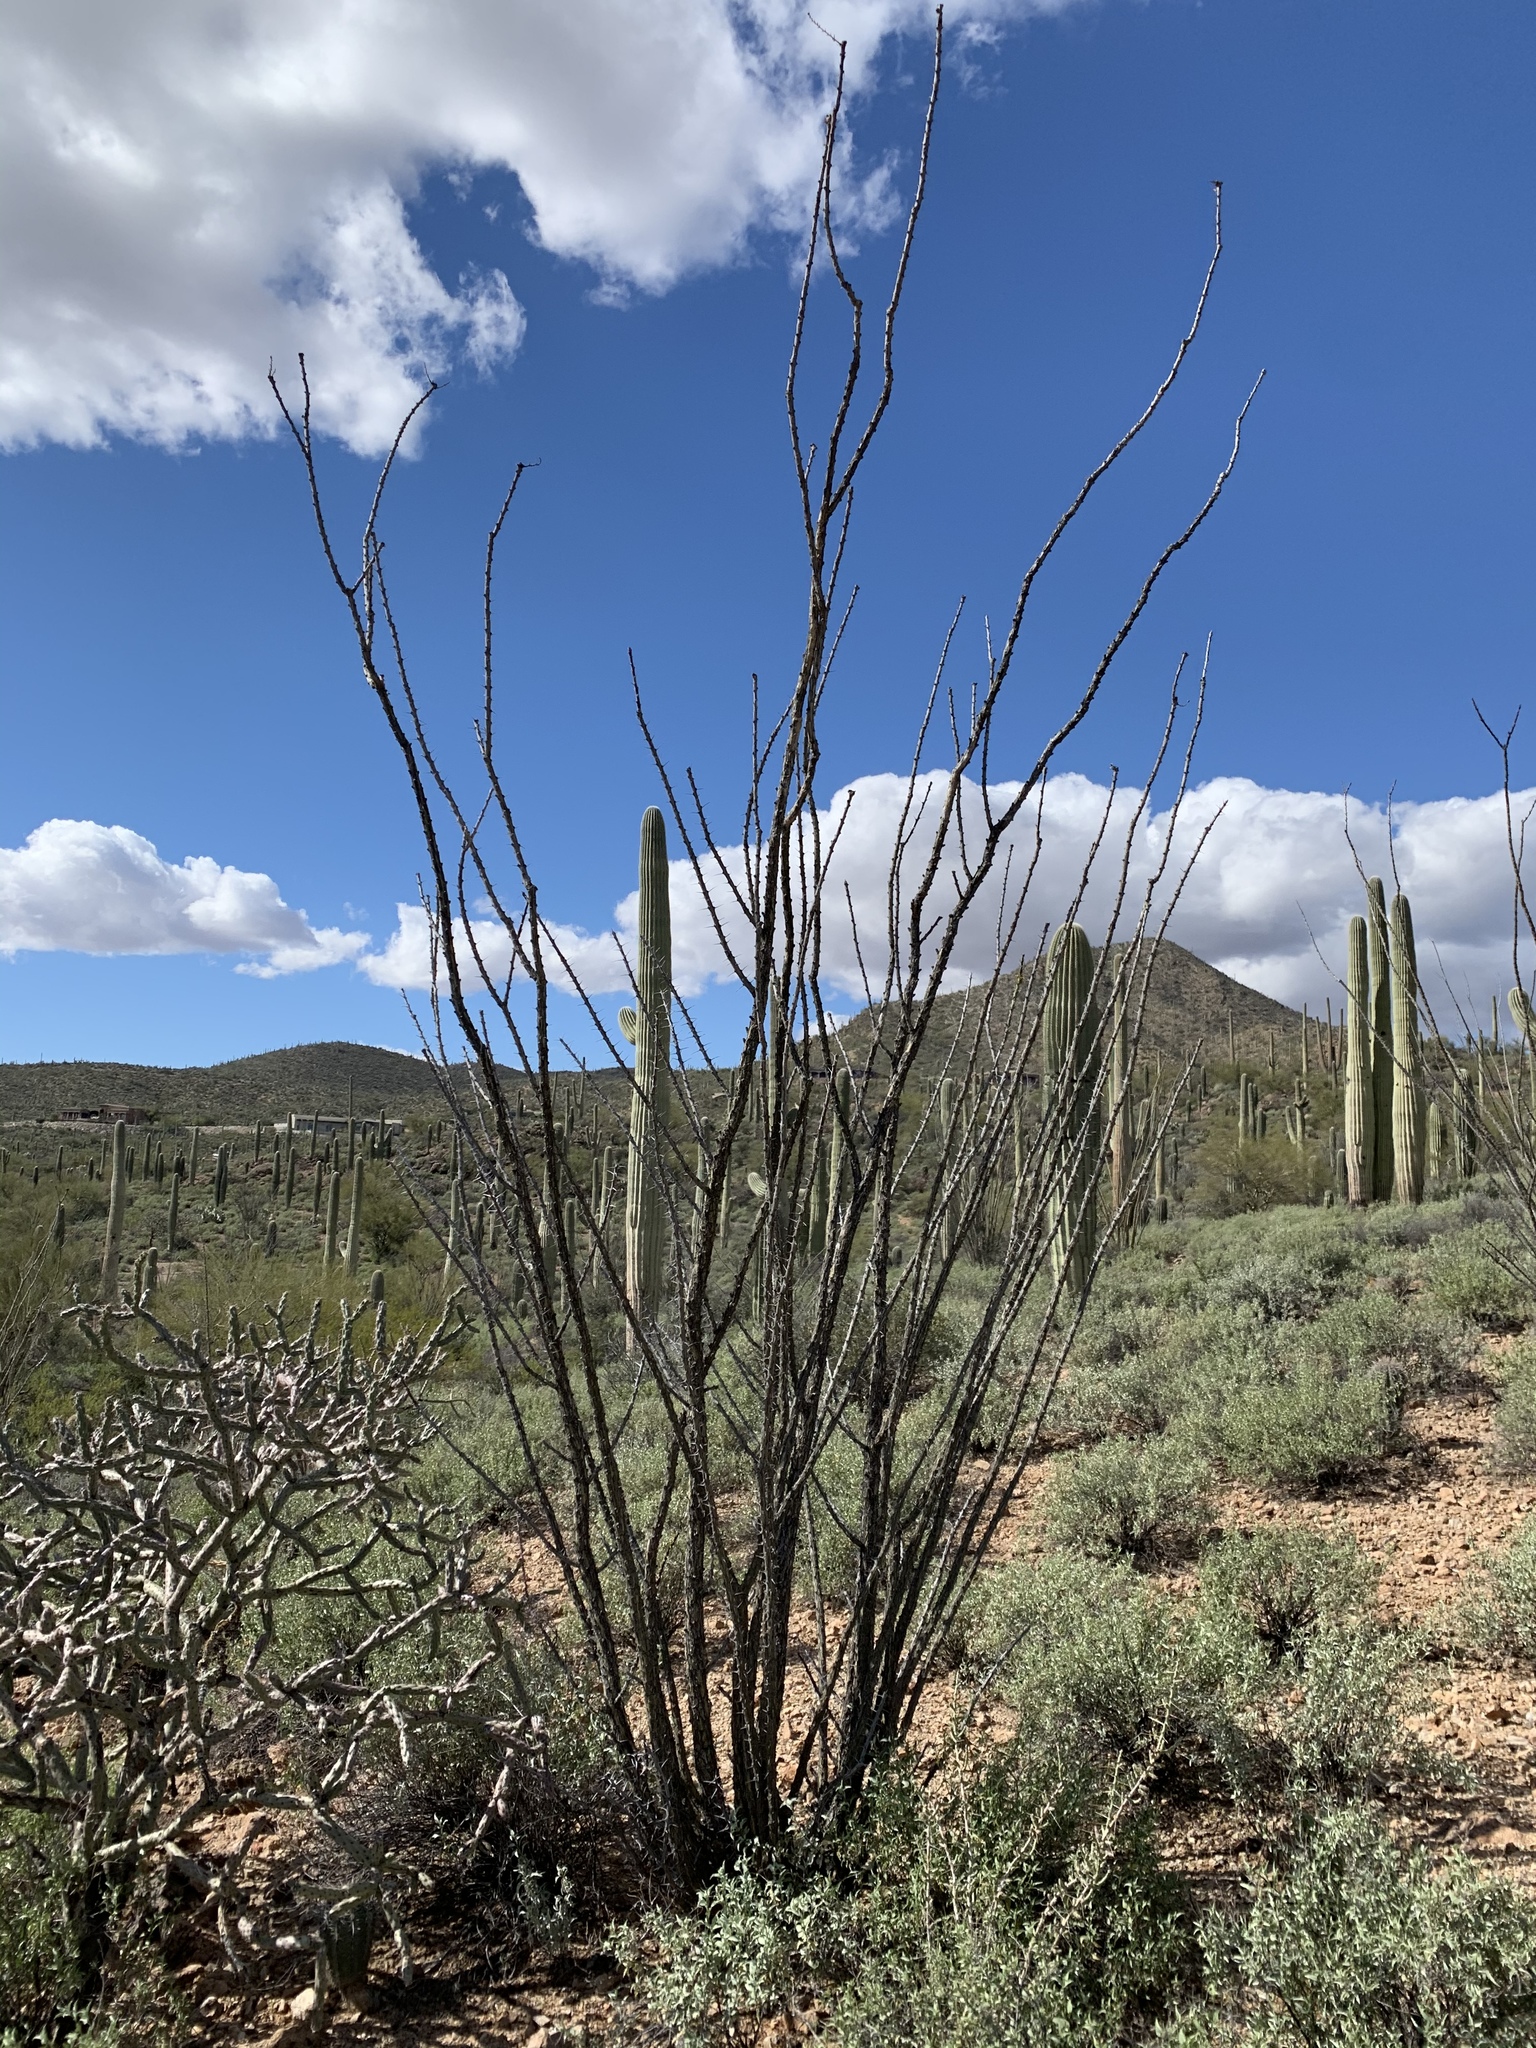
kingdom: Plantae
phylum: Tracheophyta
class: Magnoliopsida
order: Ericales
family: Fouquieriaceae
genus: Fouquieria
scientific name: Fouquieria splendens
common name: Vine-cactus
